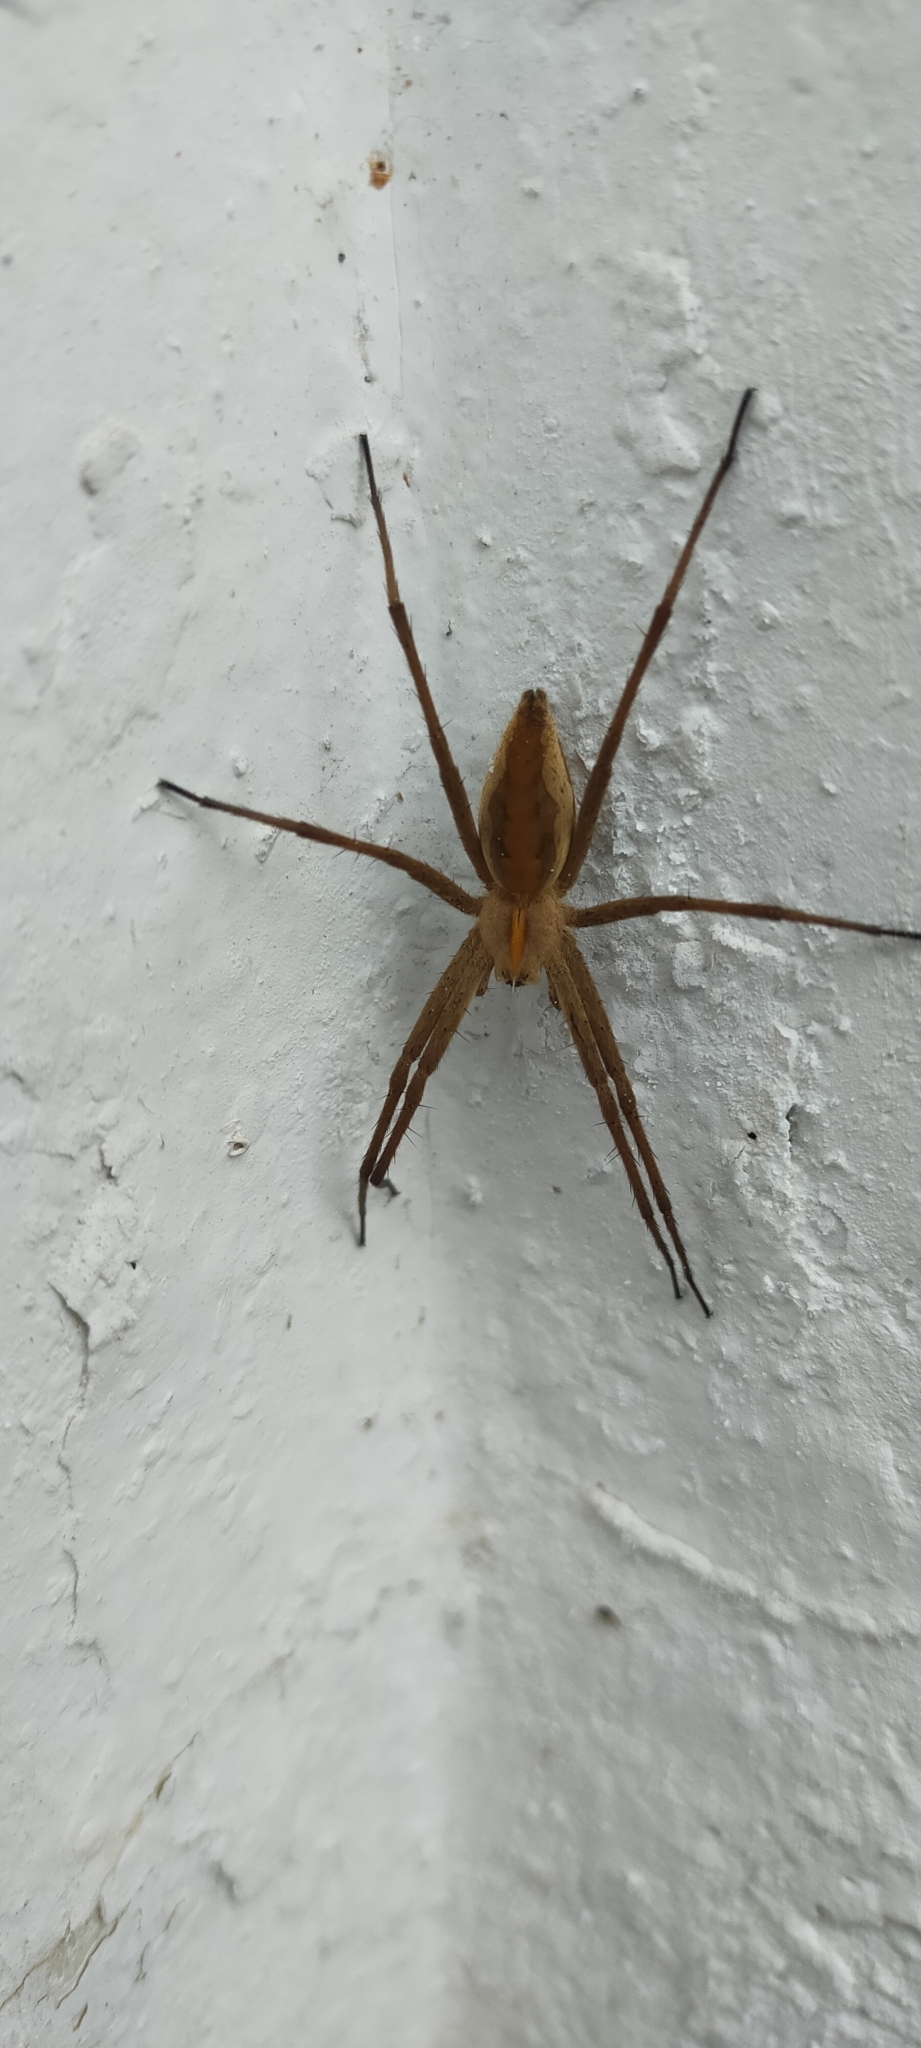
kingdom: Animalia
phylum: Arthropoda
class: Arachnida
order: Araneae
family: Pisauridae
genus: Pisaura
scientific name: Pisaura mirabilis
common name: Tent spider
